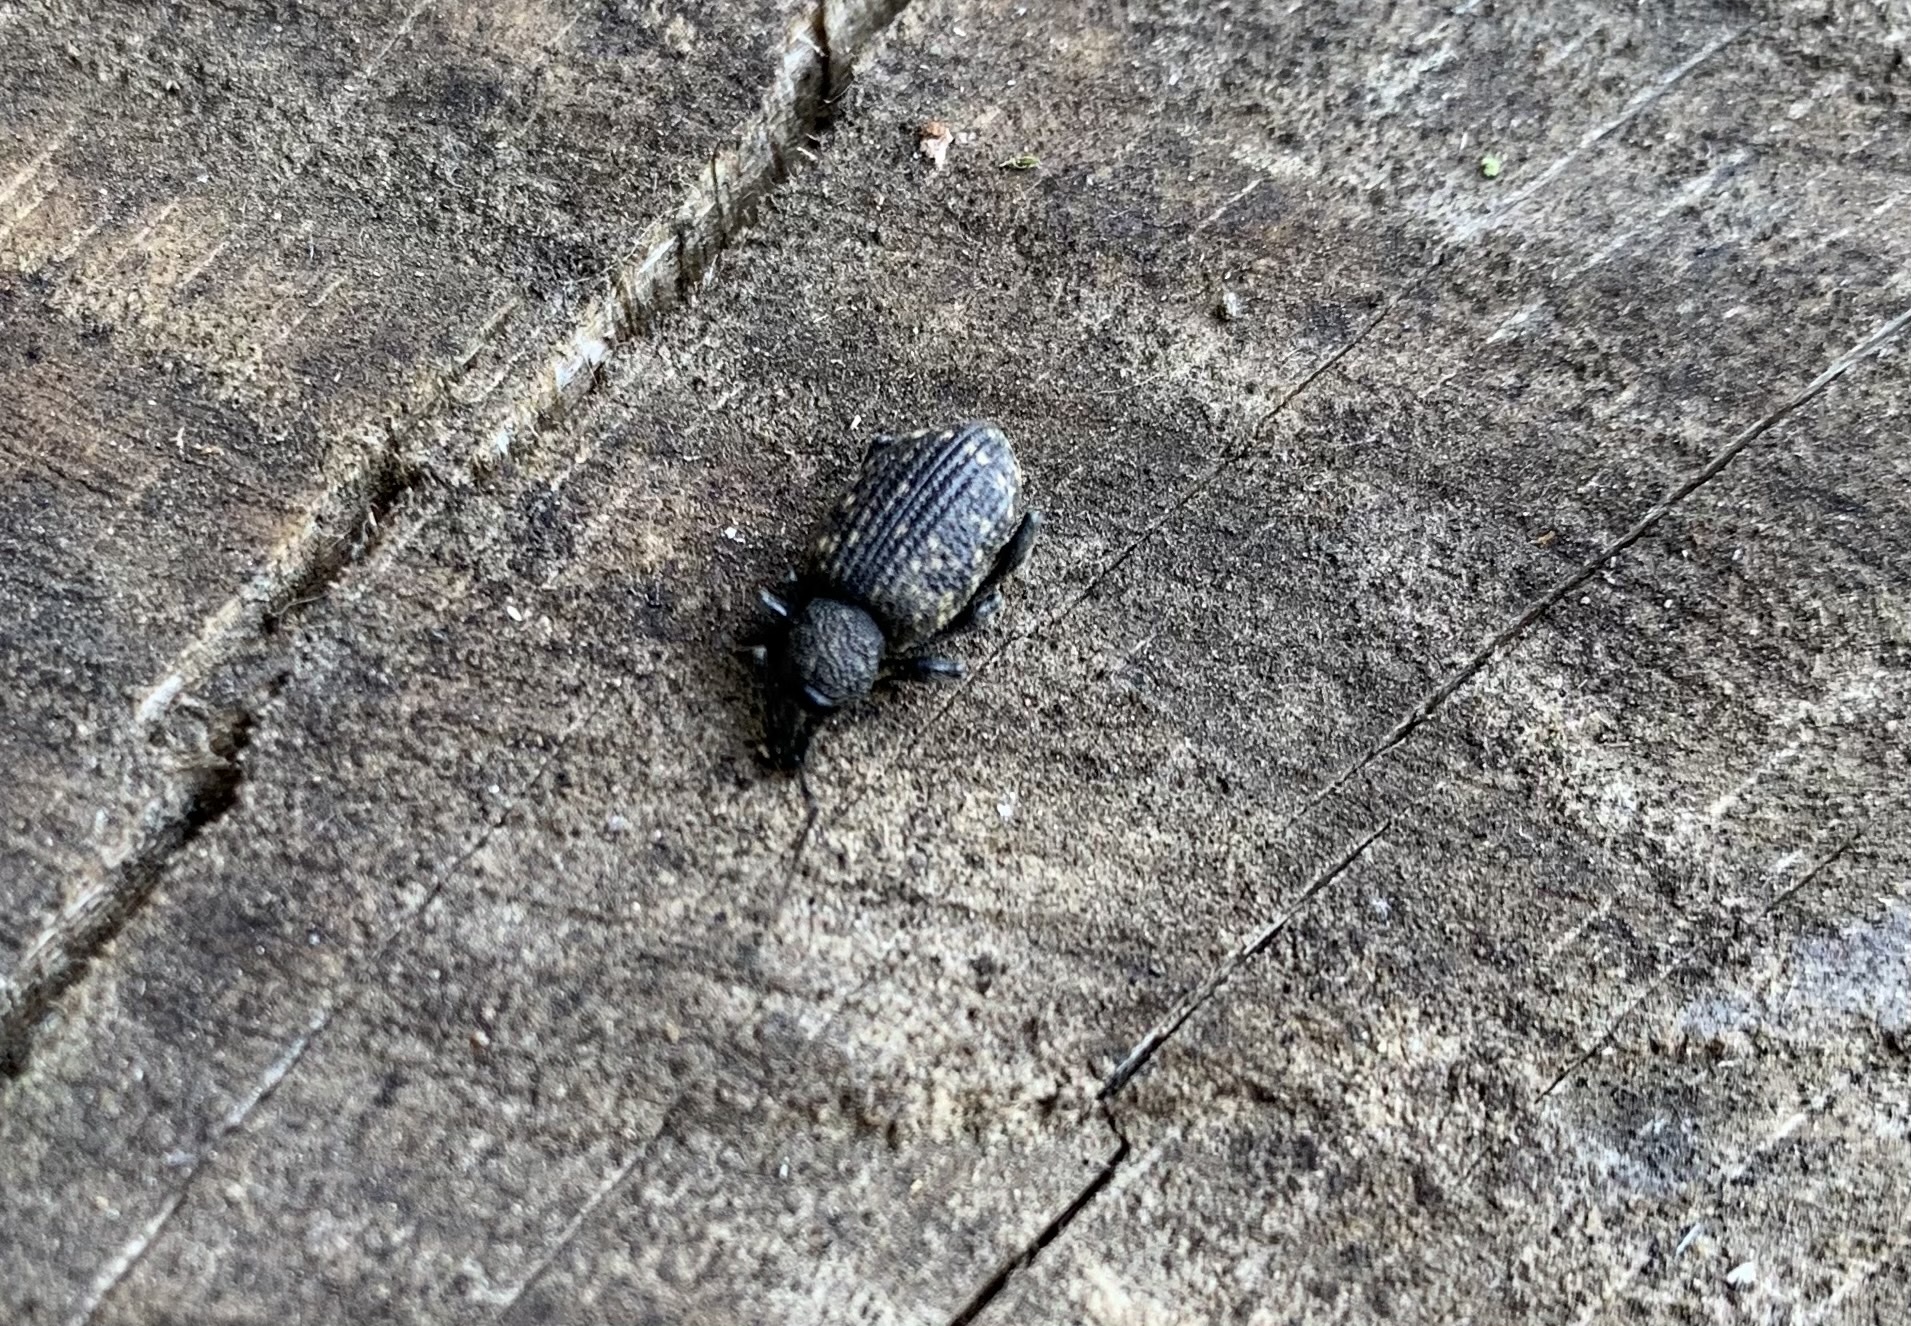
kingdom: Animalia
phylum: Arthropoda
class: Insecta
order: Coleoptera
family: Curculionidae
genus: Otiorhynchus
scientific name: Otiorhynchus sulcatus
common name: Black vine weevil
